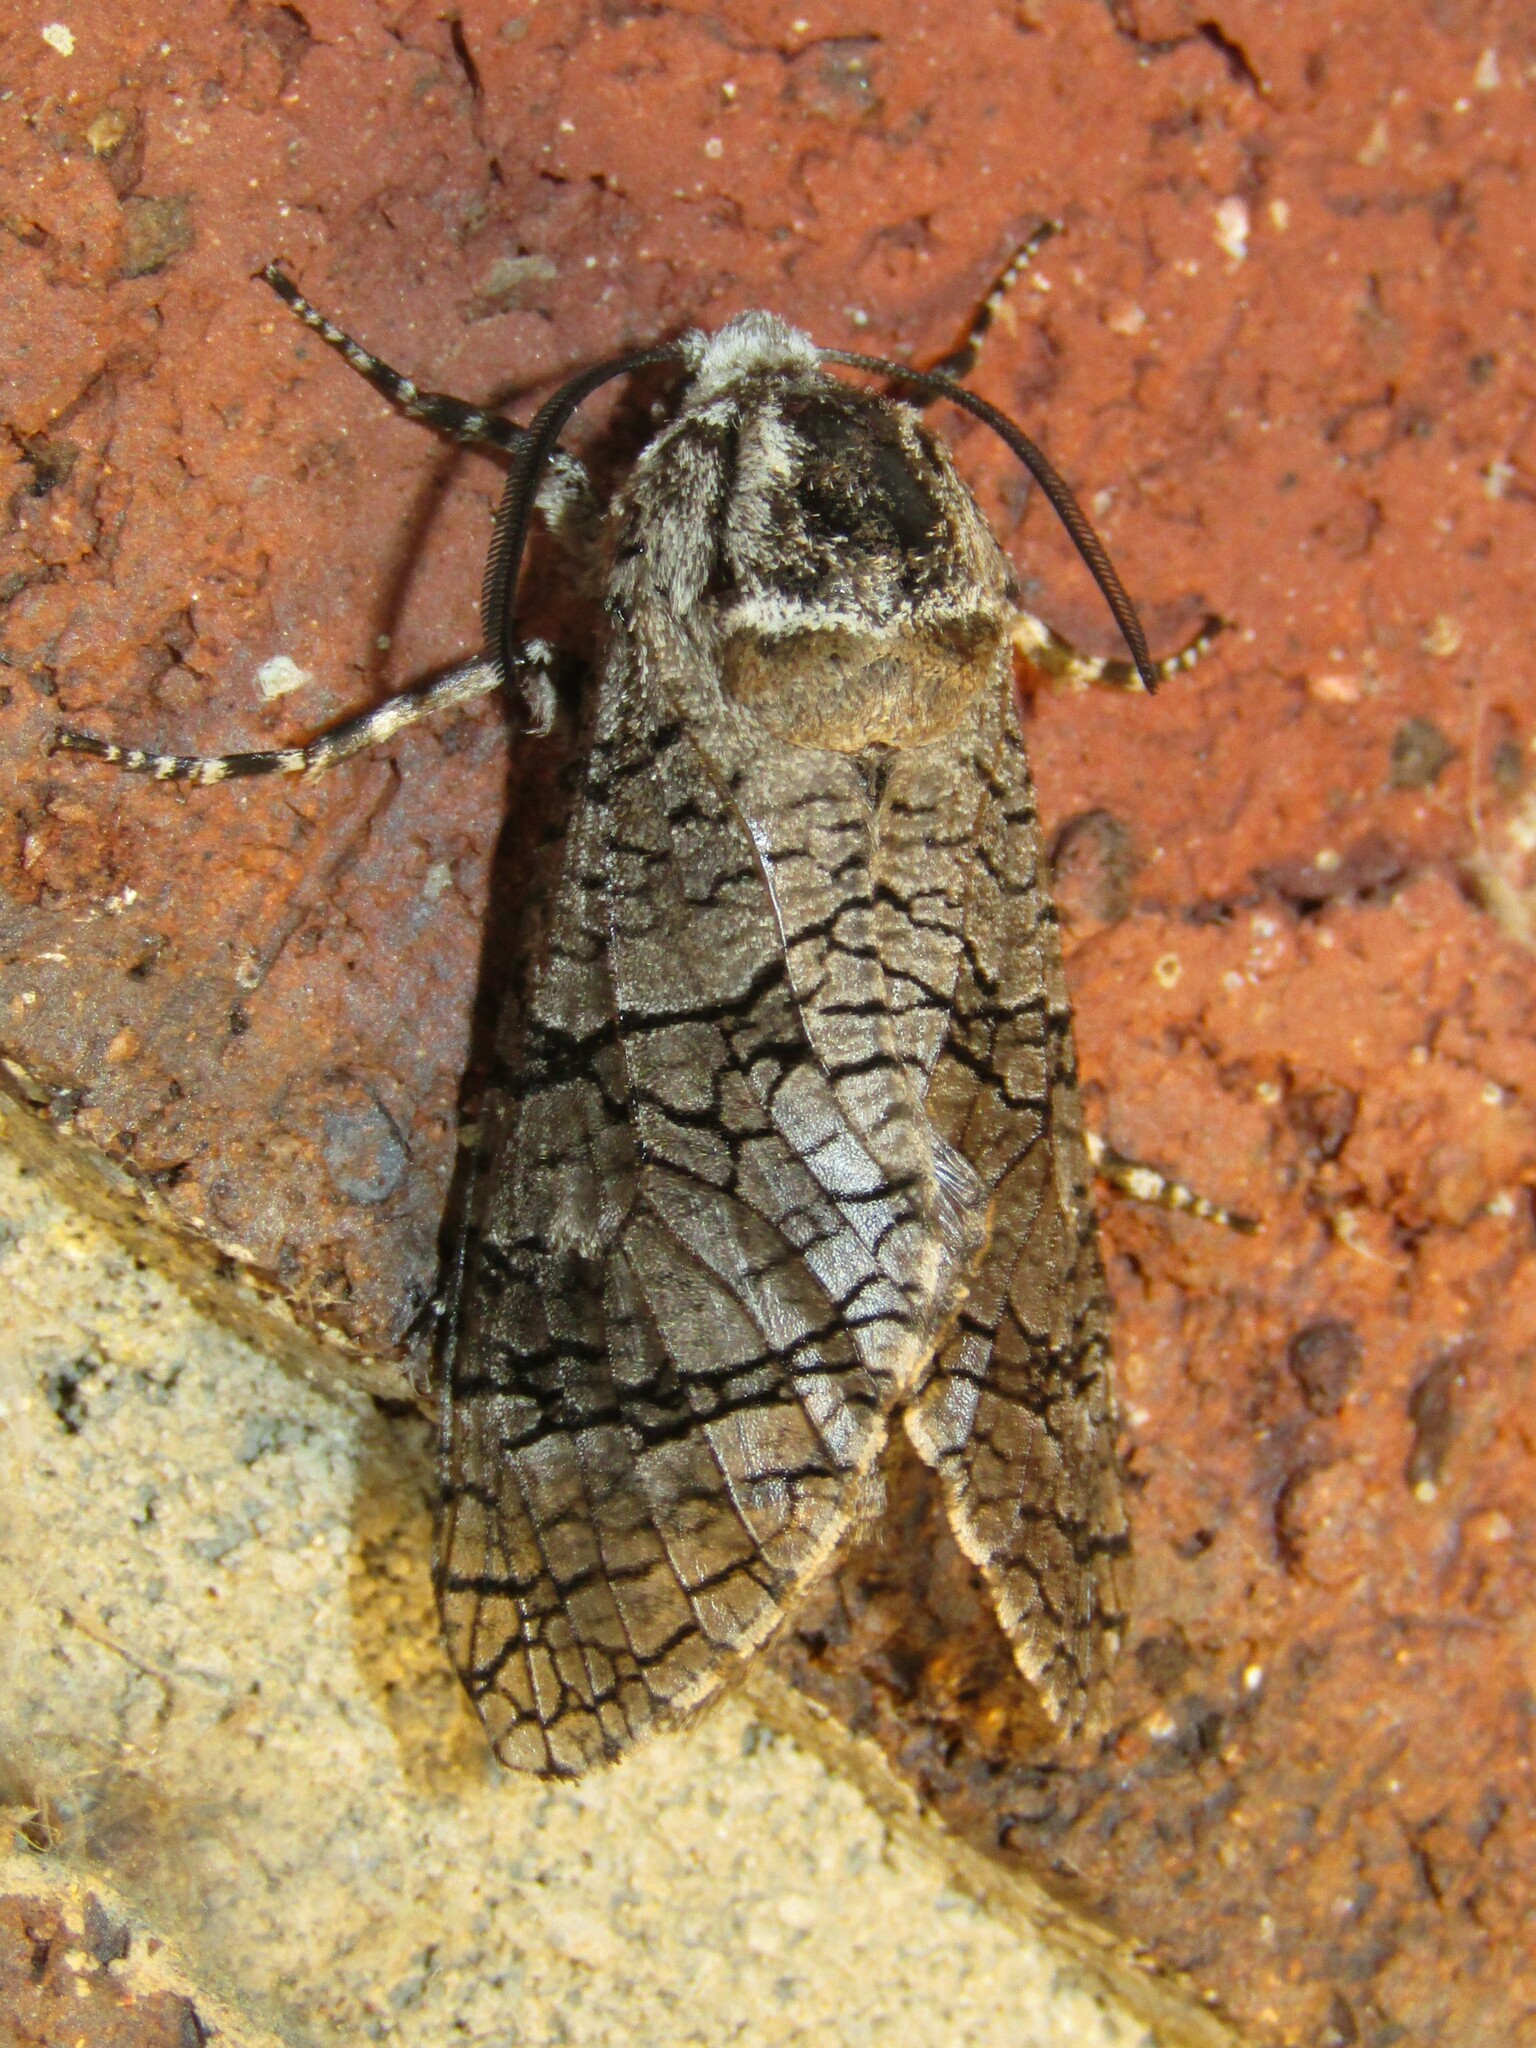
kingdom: Animalia
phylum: Arthropoda
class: Insecta
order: Lepidoptera
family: Cossidae
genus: Prionoxystus
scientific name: Prionoxystus macmurtrei
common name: Little carpenterworm
